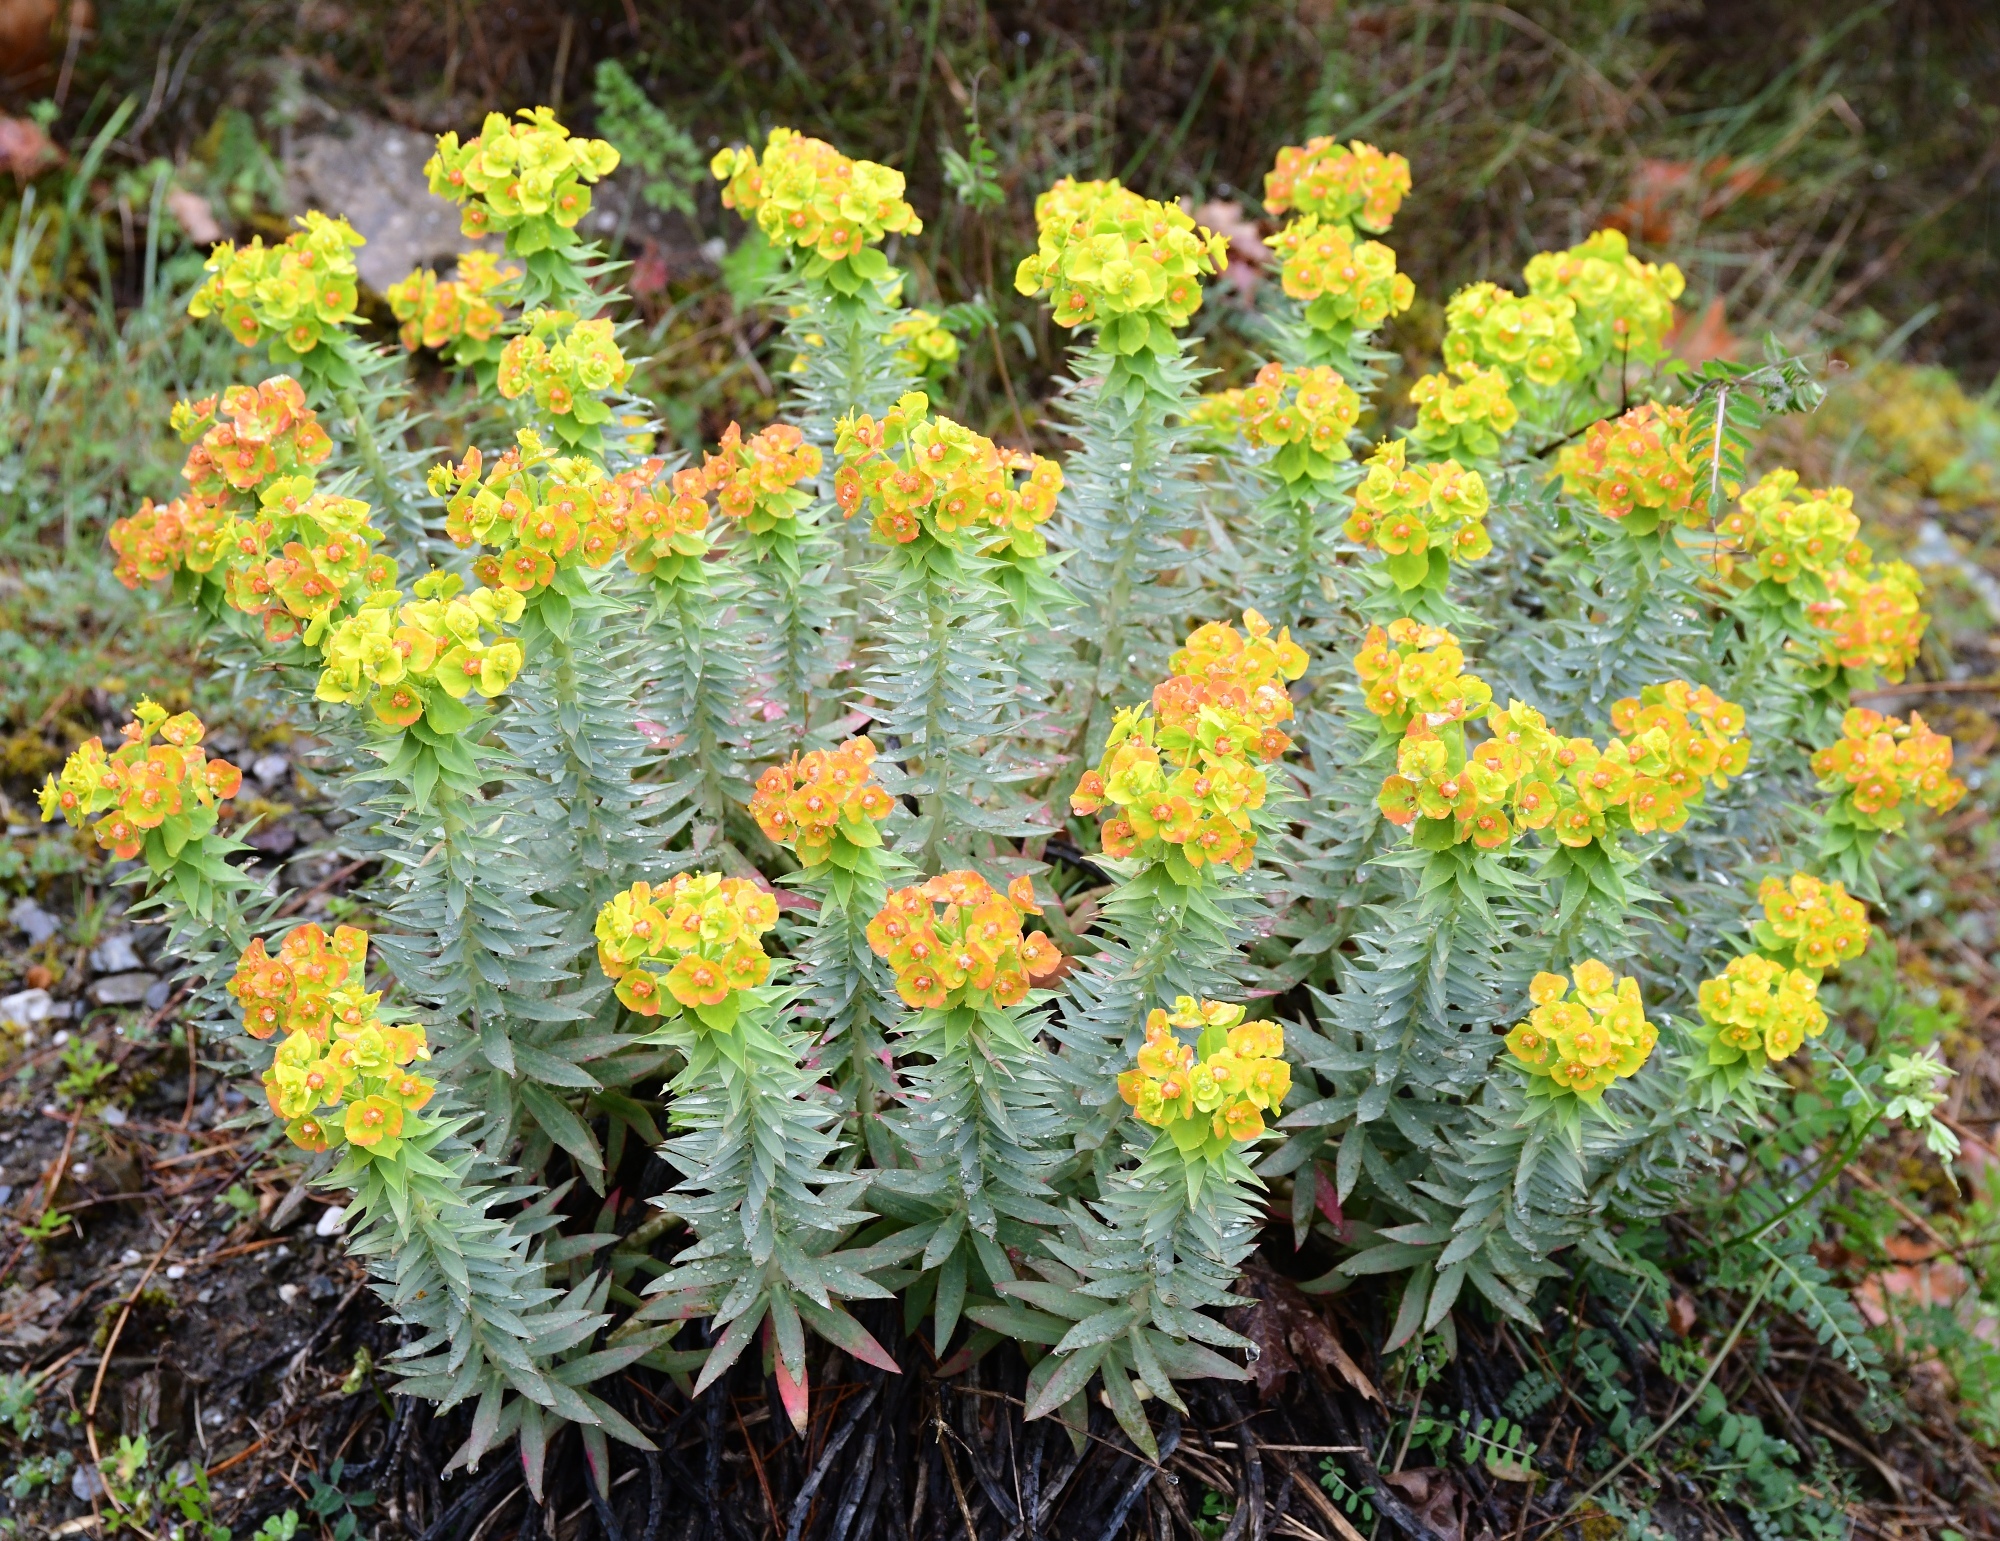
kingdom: Plantae
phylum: Tracheophyta
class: Magnoliopsida
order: Malpighiales
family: Euphorbiaceae
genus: Euphorbia
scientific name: Euphorbia rigida
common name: Upright myrtle spurge
